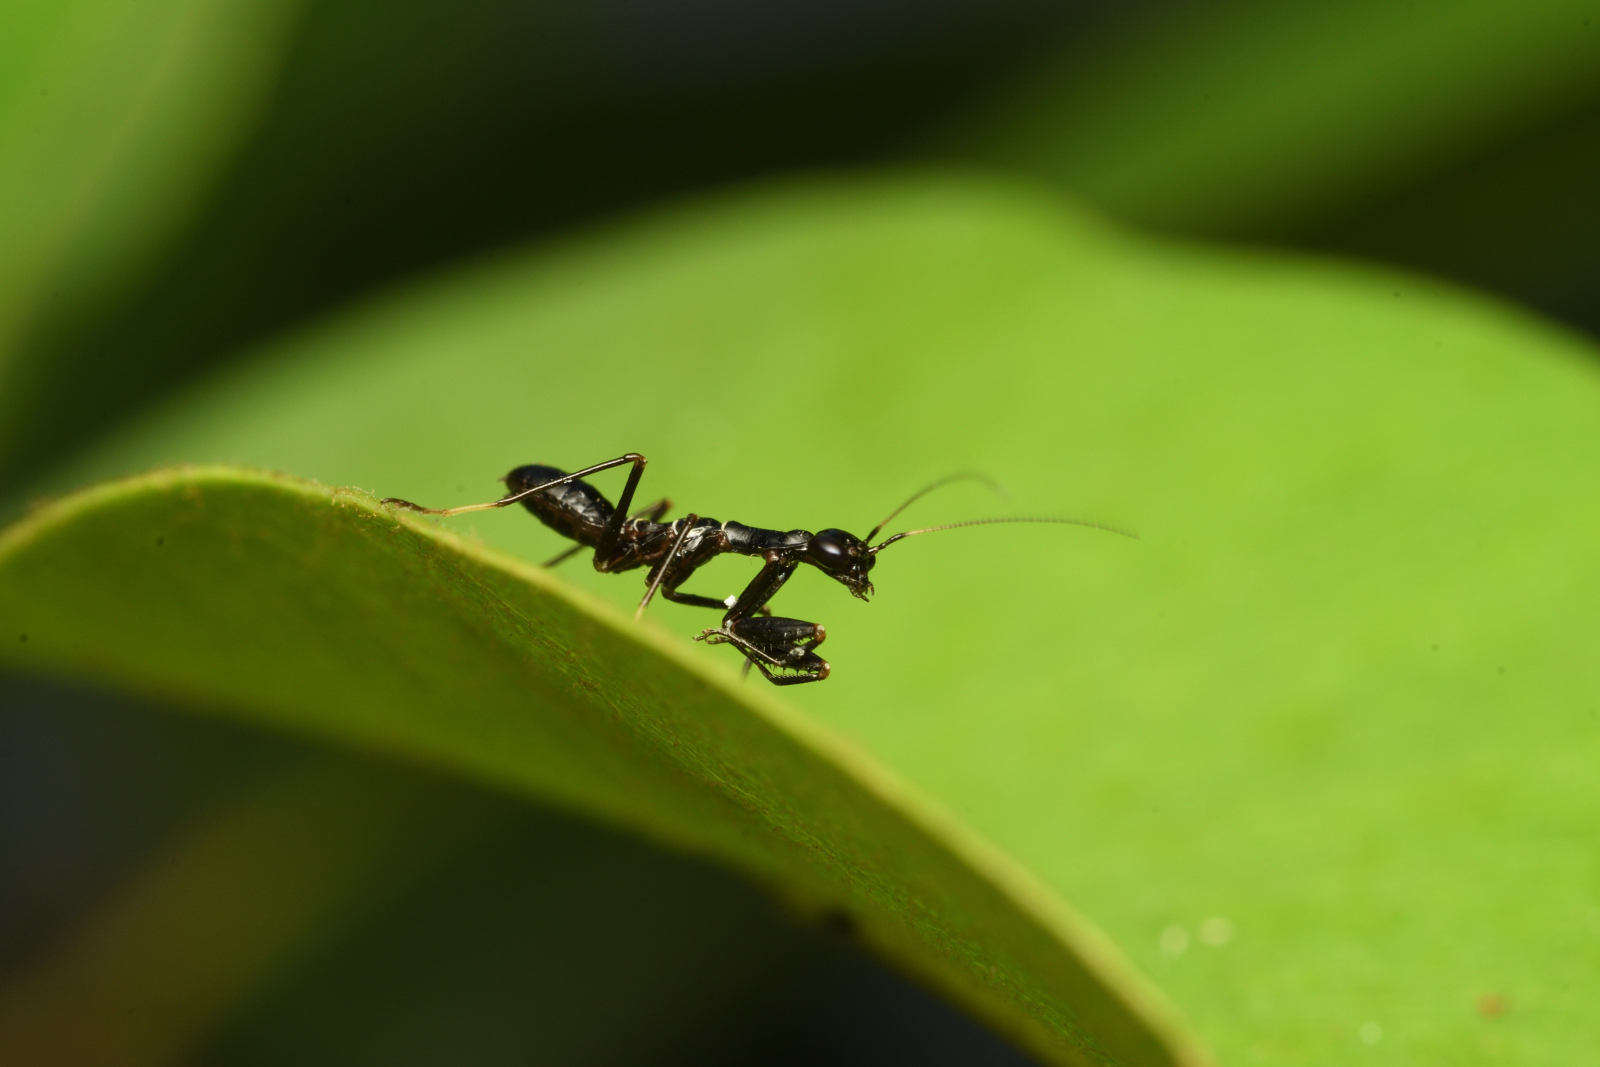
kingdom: Animalia
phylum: Arthropoda
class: Insecta
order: Mantodea
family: Hymenopodidae
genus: Odontomantis
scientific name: Odontomantis pulchra
